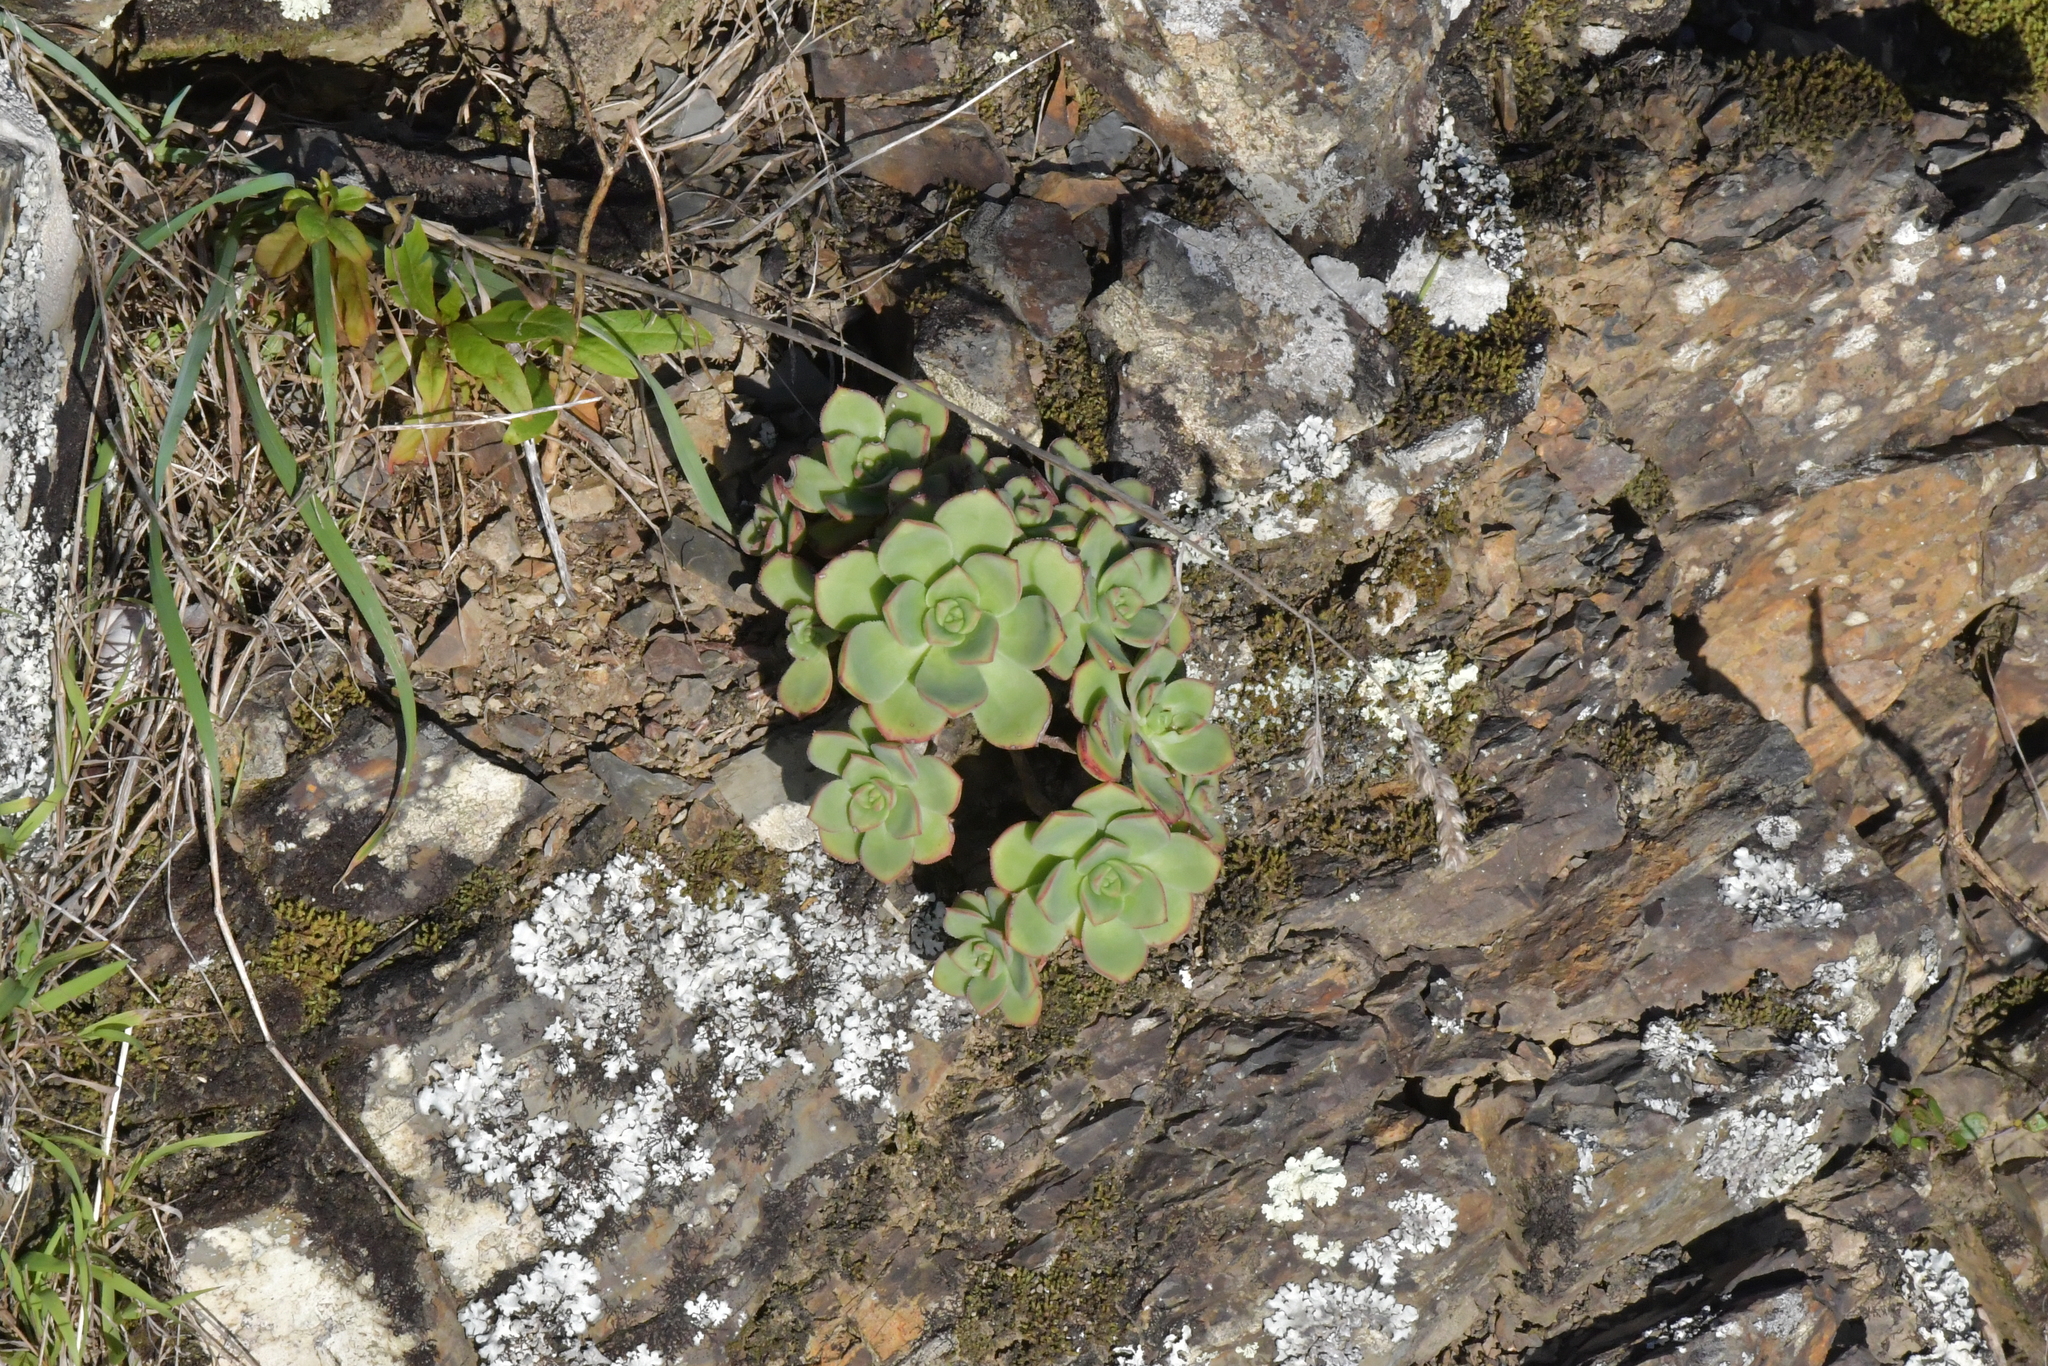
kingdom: Plantae
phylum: Tracheophyta
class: Magnoliopsida
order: Saxifragales
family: Crassulaceae
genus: Aeonium
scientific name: Aeonium haworthii
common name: Haworth's aeonium
